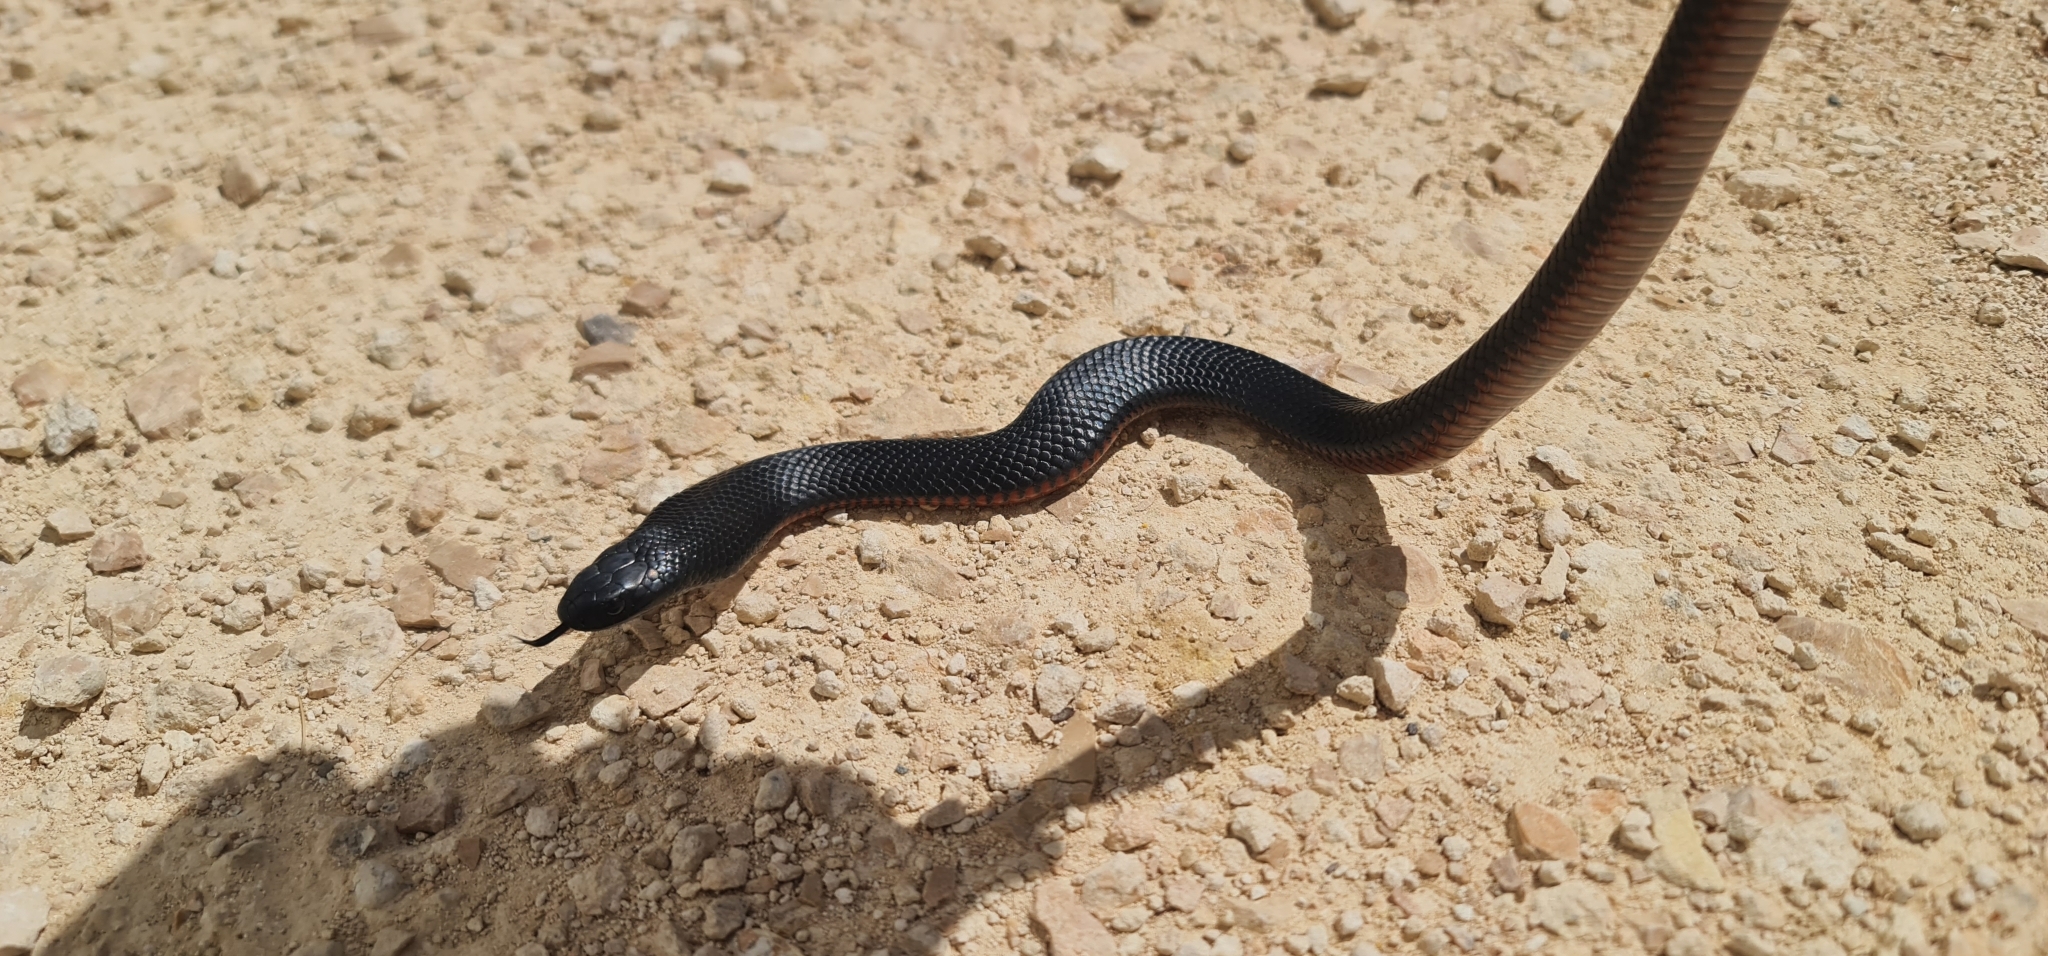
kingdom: Animalia
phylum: Chordata
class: Squamata
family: Elapidae
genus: Pseudechis
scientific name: Pseudechis porphyriacus
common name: Australian black snake
